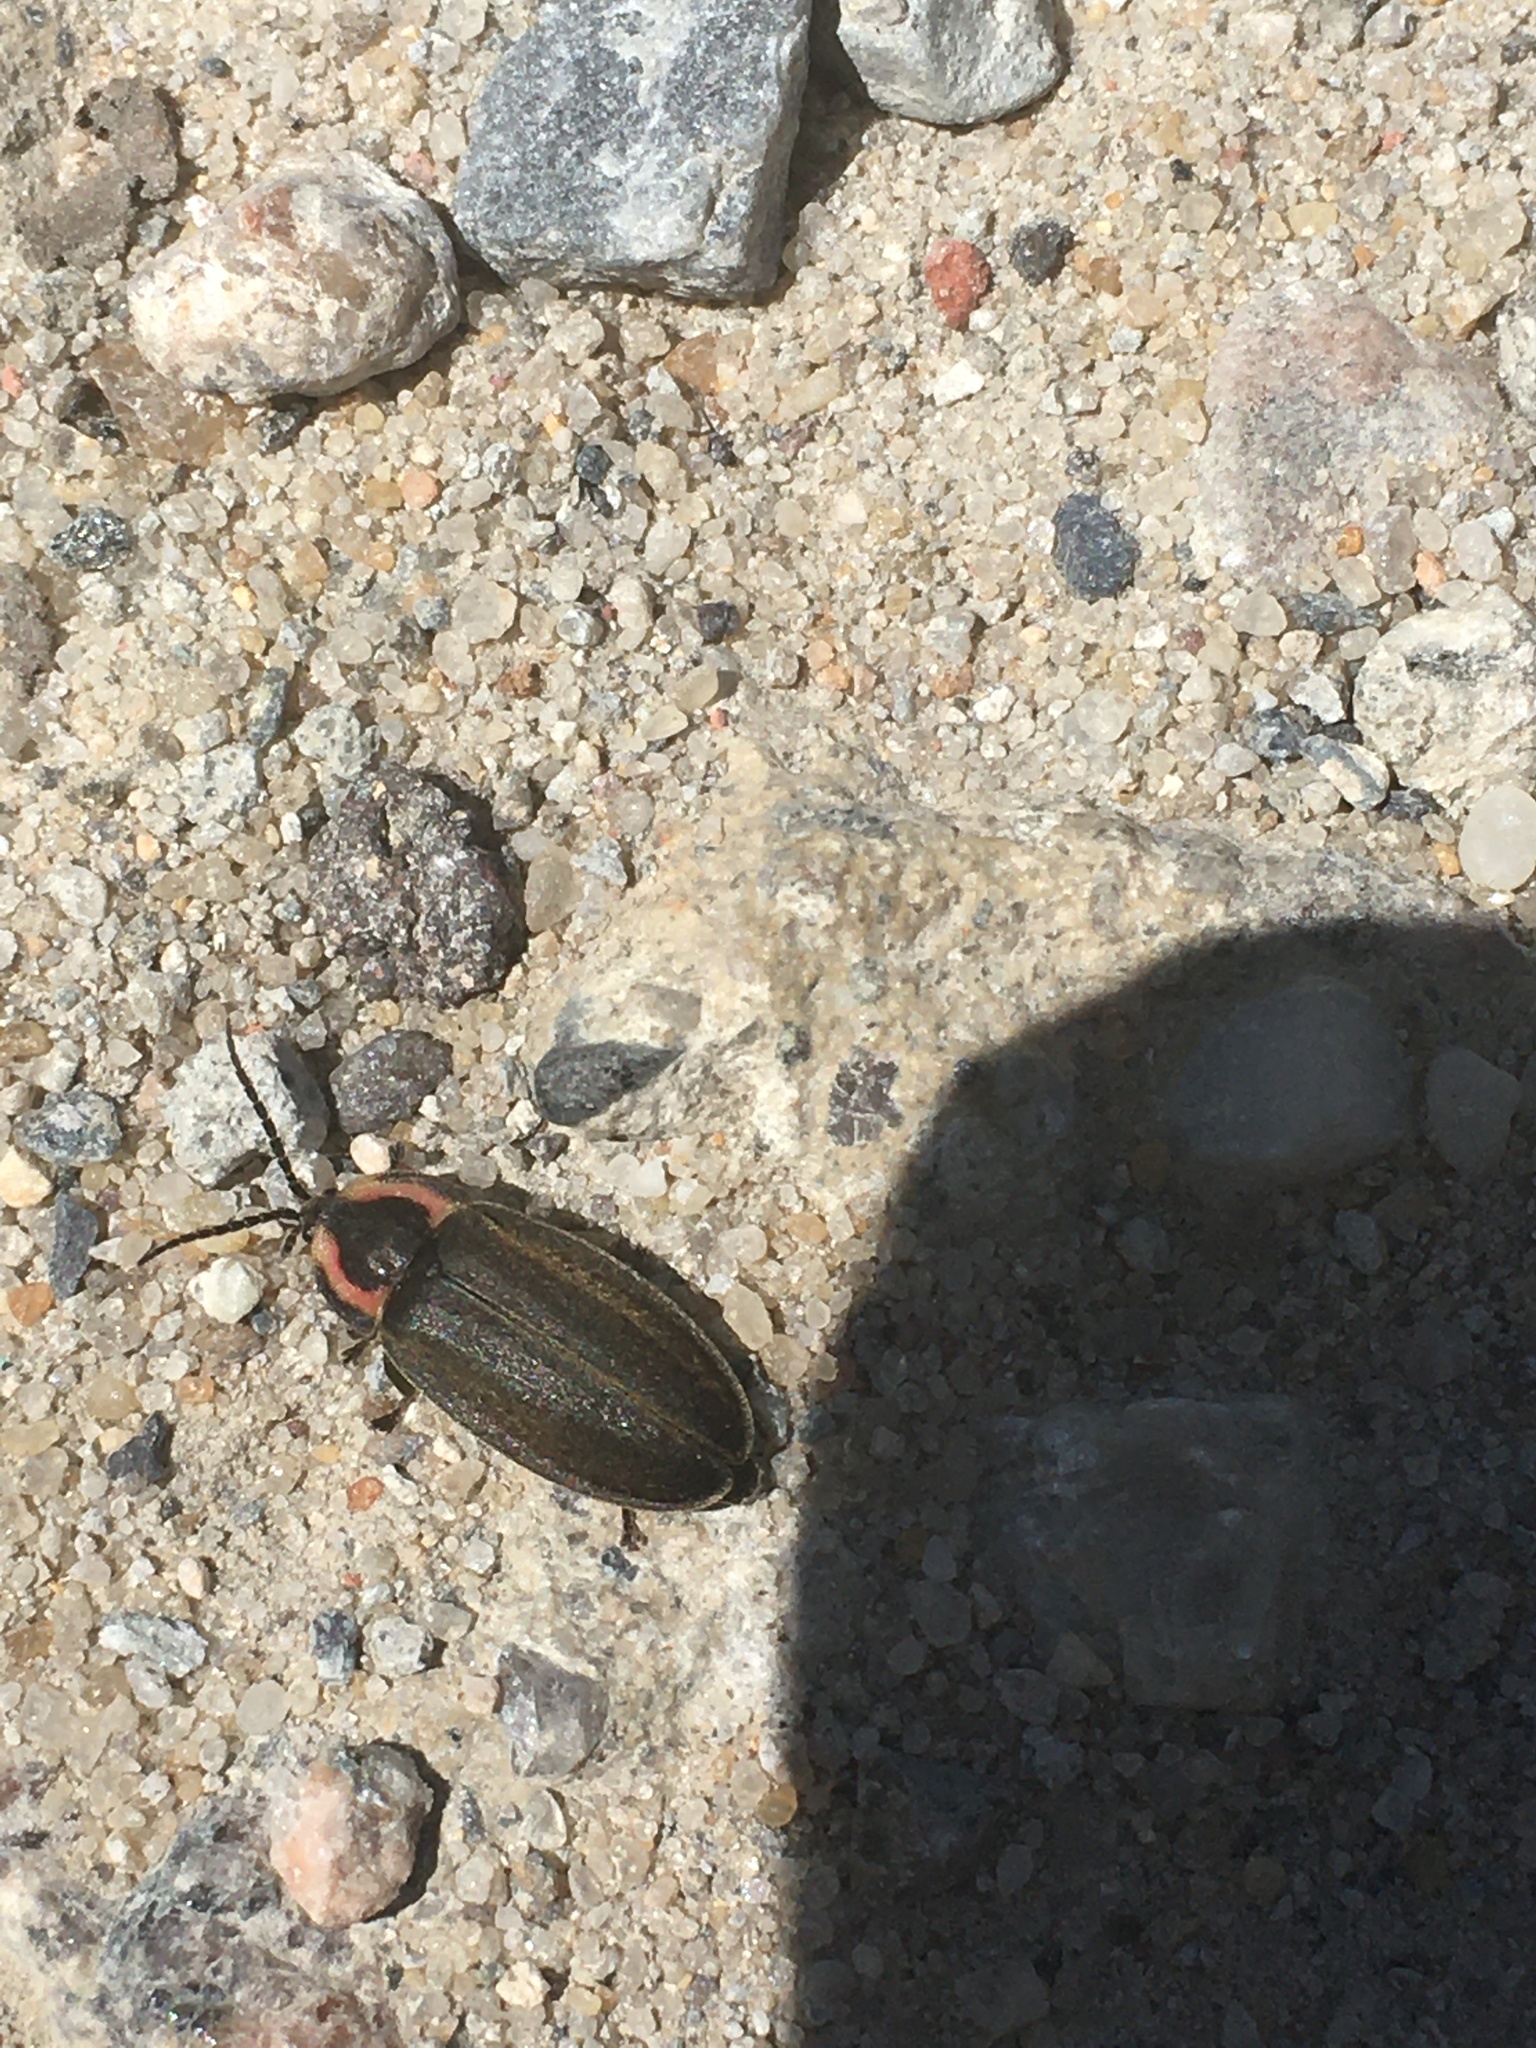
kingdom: Animalia
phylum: Arthropoda
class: Insecta
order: Coleoptera
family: Lampyridae
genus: Photinus
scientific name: Photinus corrusca
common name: Winter firefly
